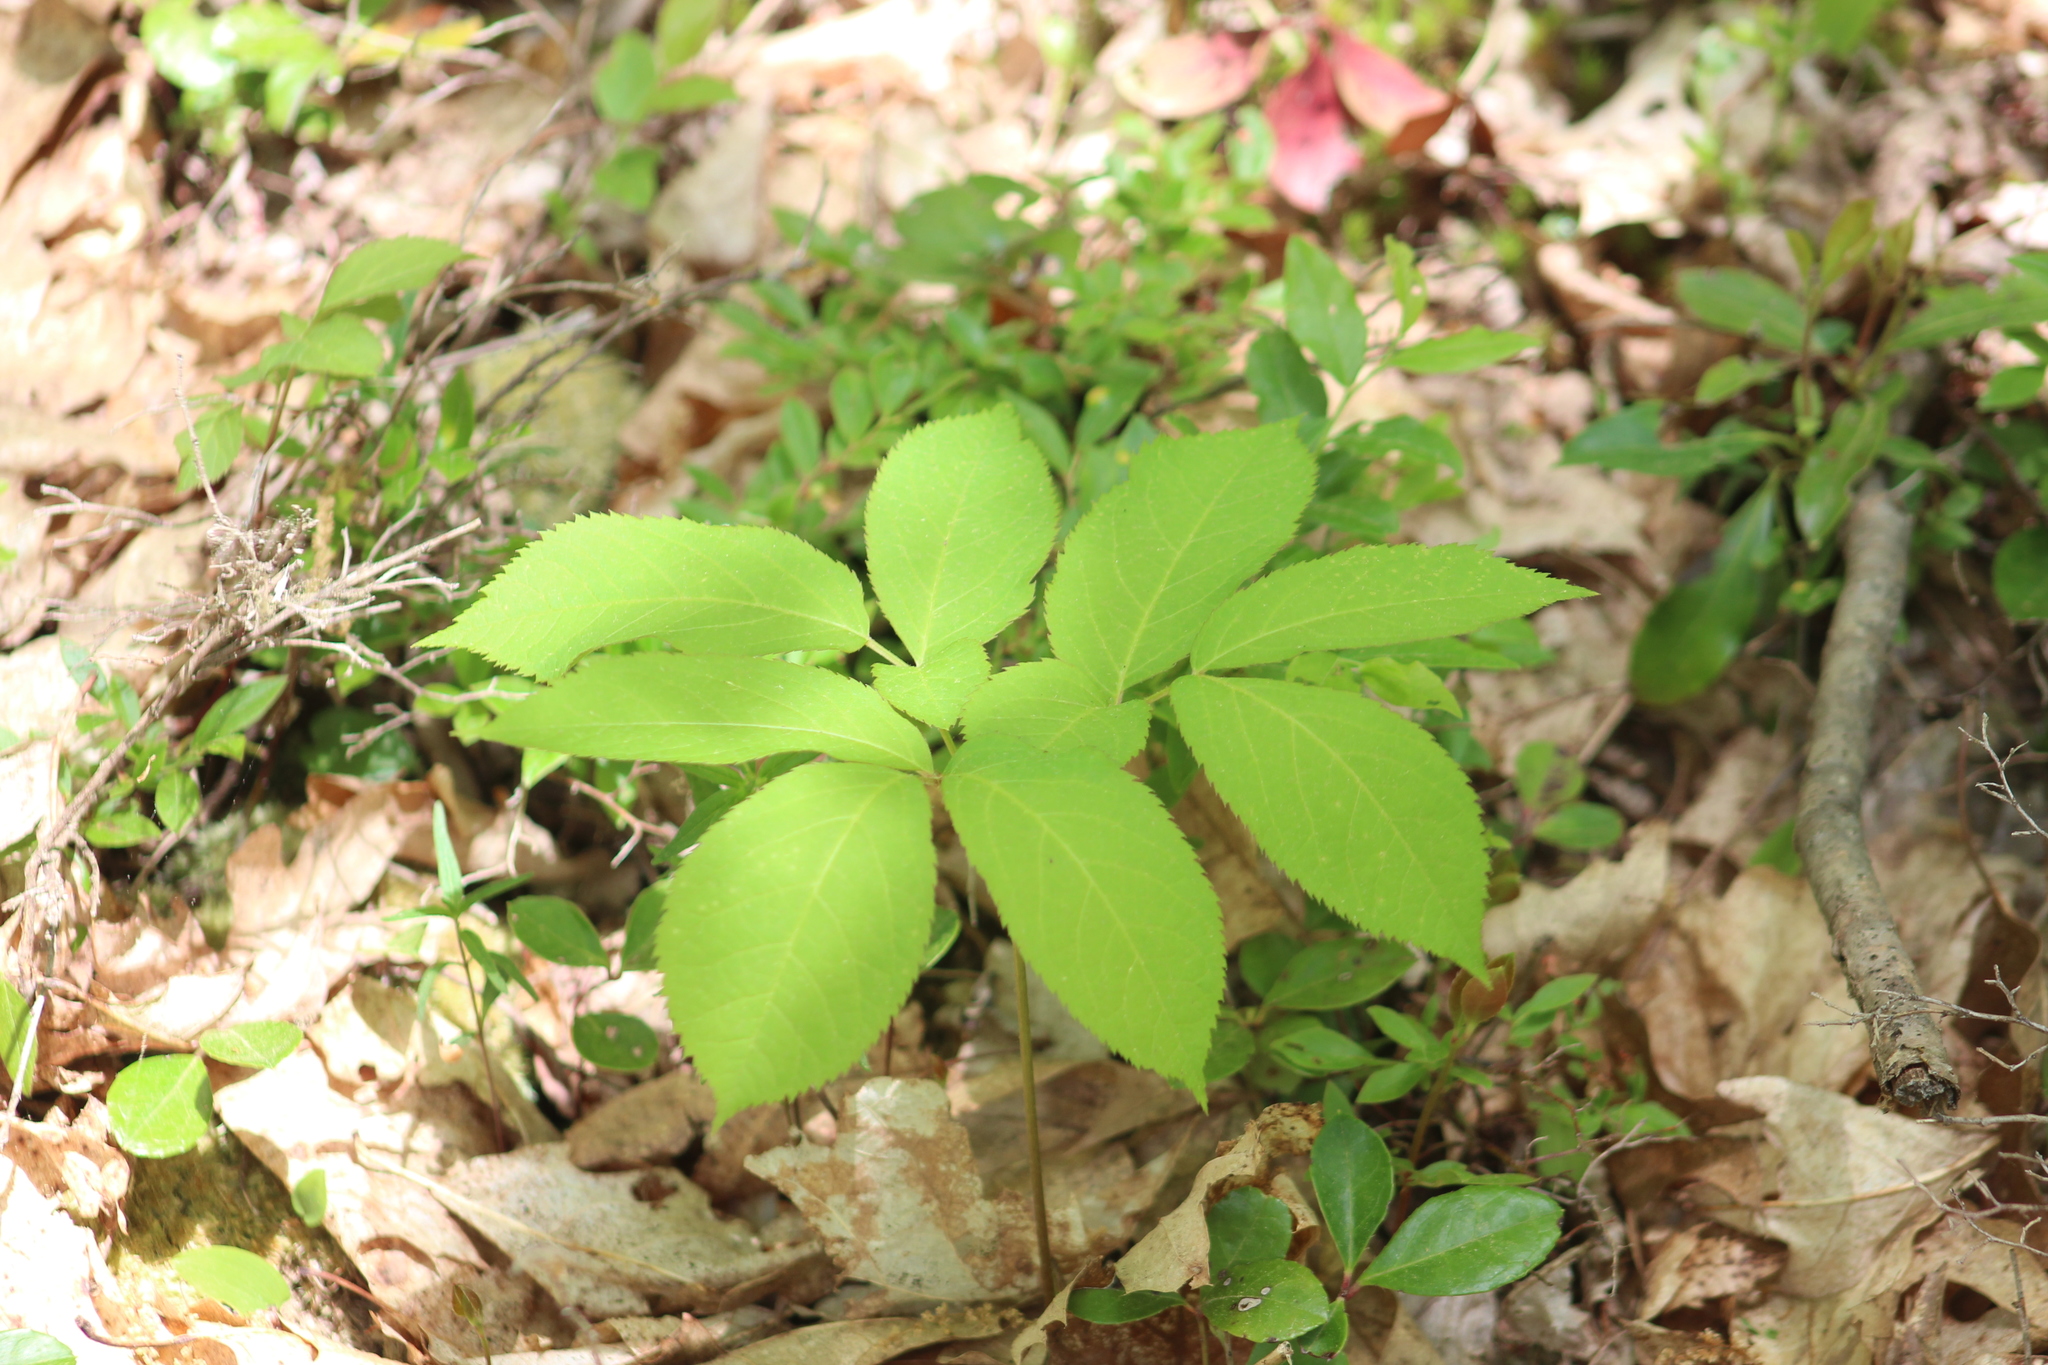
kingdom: Plantae
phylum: Tracheophyta
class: Magnoliopsida
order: Apiales
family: Araliaceae
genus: Aralia
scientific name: Aralia nudicaulis
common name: Wild sarsaparilla
